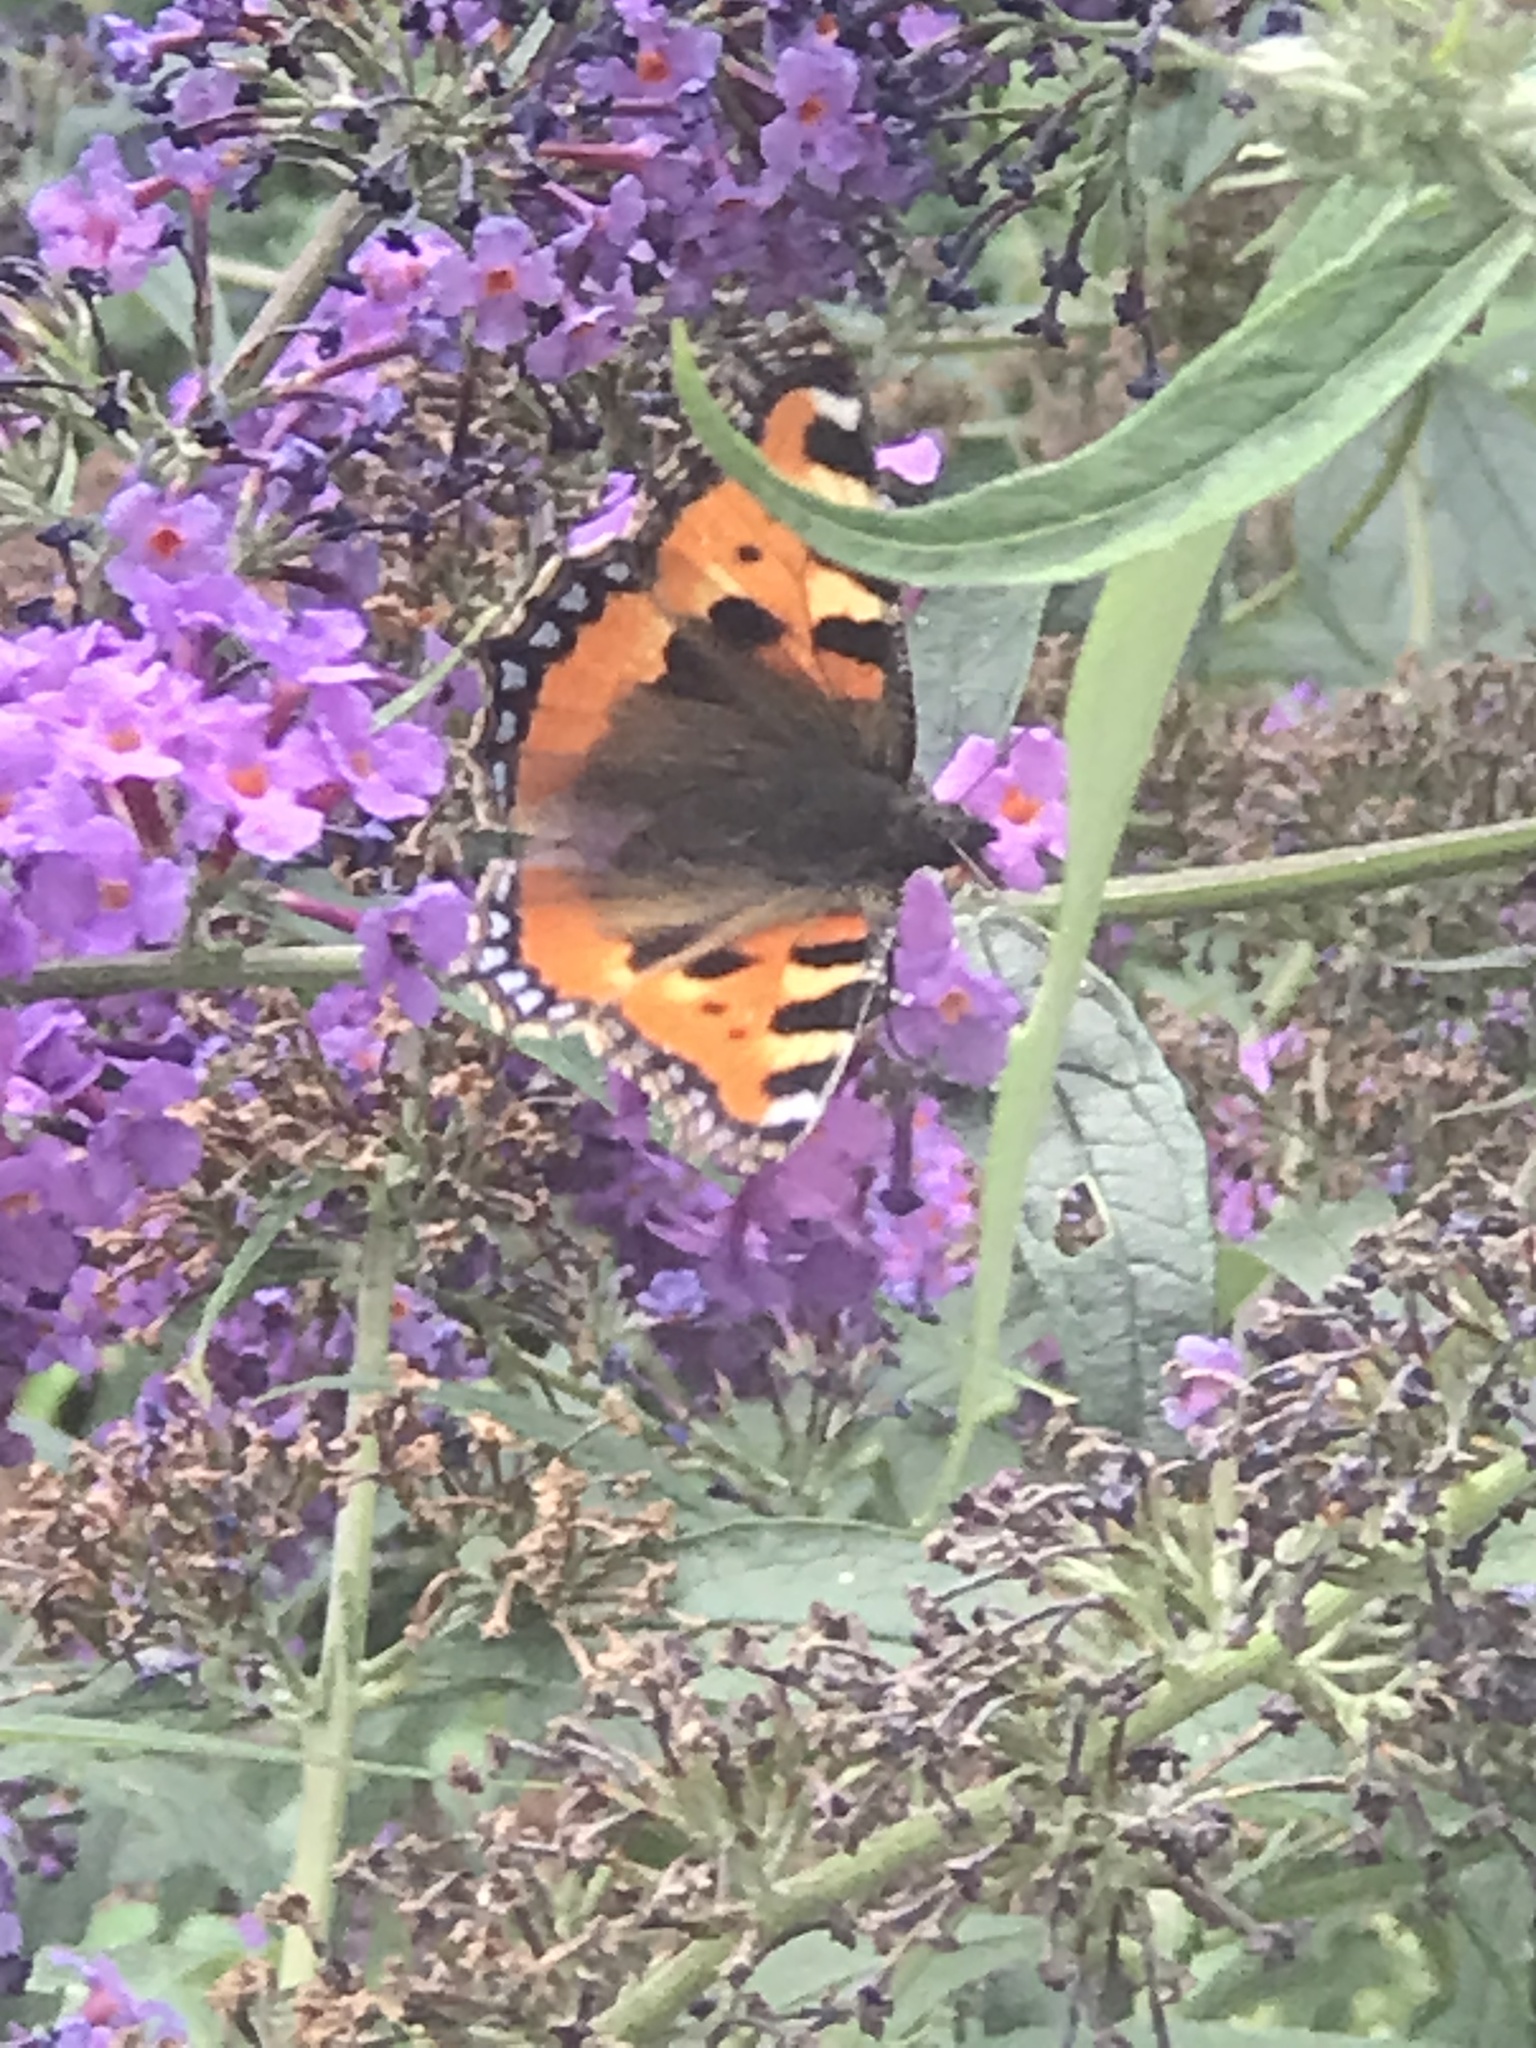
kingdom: Animalia
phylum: Arthropoda
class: Insecta
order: Lepidoptera
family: Nymphalidae
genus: Aglais
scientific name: Aglais urticae
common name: Small tortoiseshell
